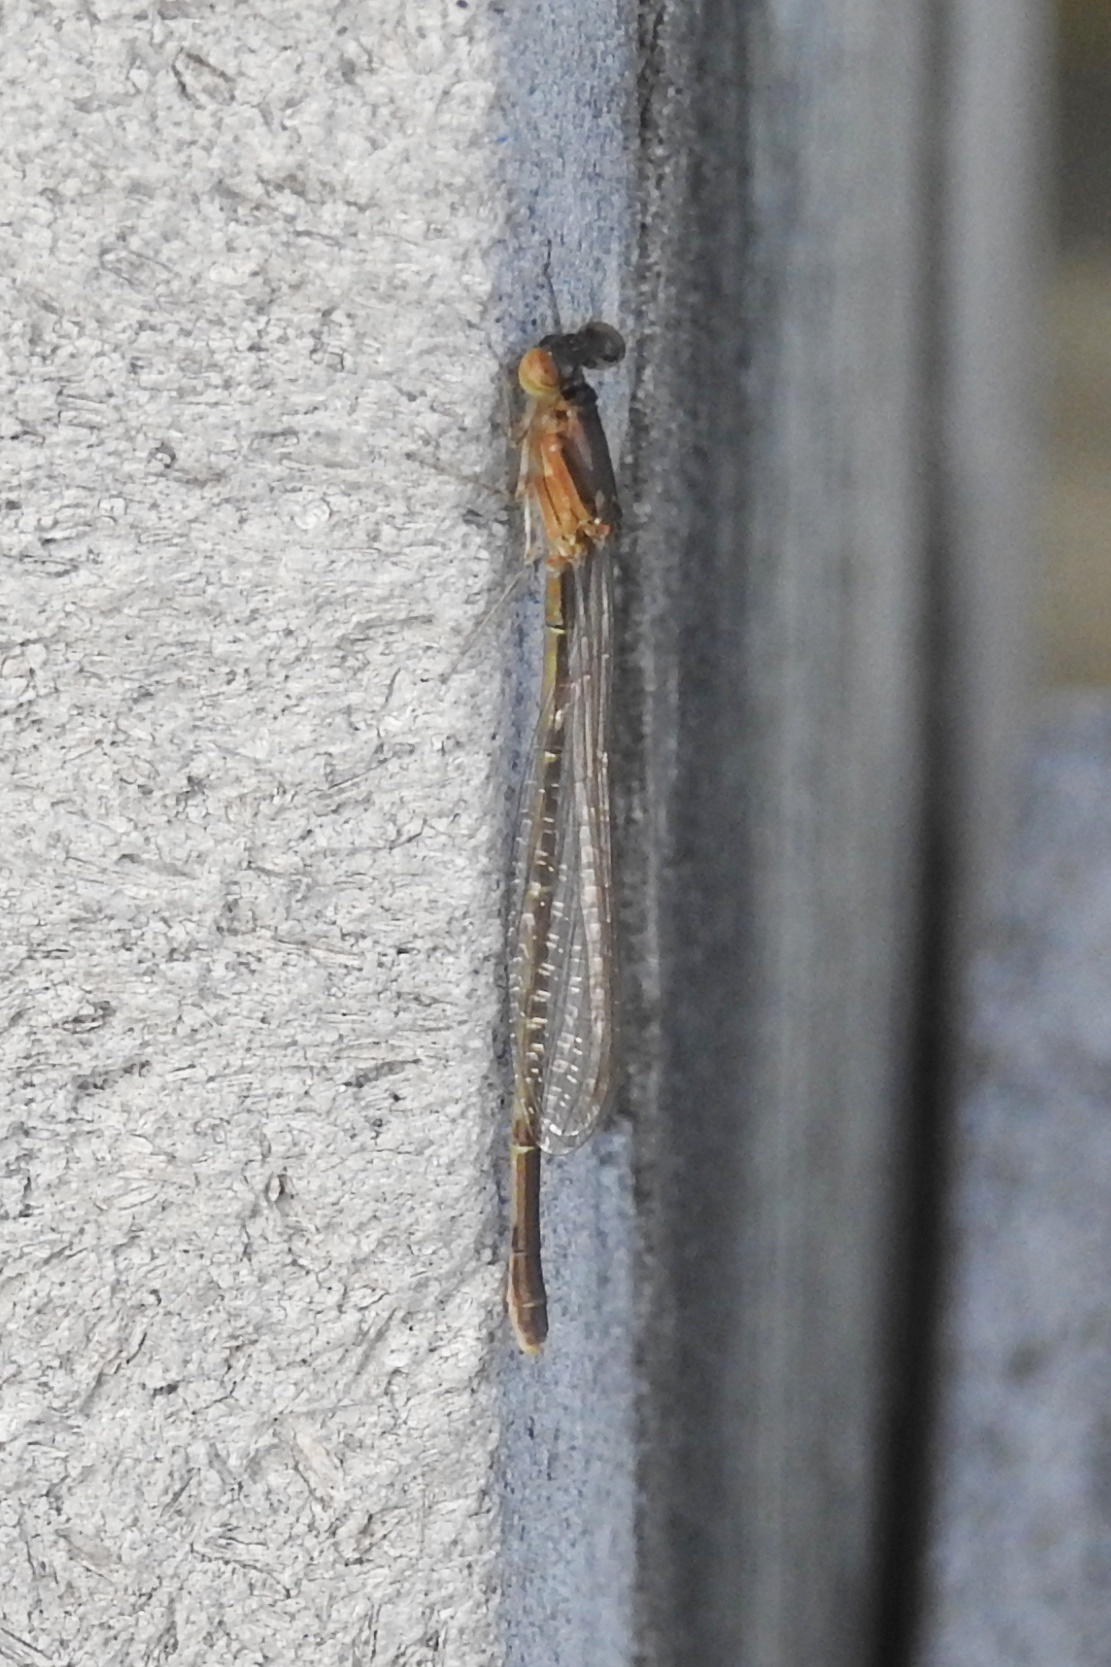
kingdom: Animalia
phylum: Arthropoda
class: Insecta
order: Odonata
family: Coenagrionidae
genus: Ischnura
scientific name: Ischnura posita
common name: Fragile forktail
